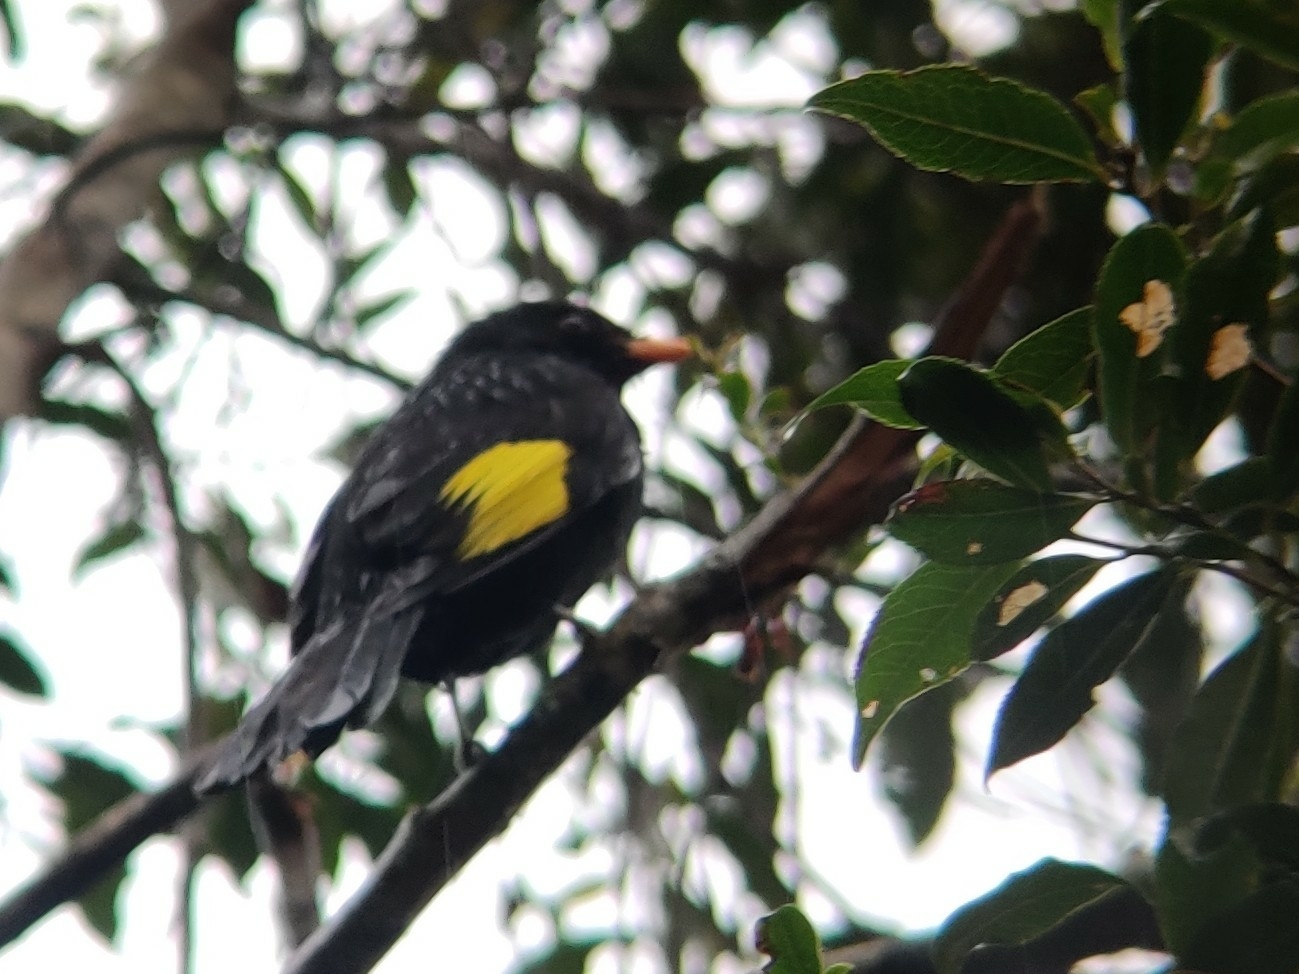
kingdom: Animalia
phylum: Chordata
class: Aves
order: Passeriformes
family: Cotingidae
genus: Lipaugus
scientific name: Lipaugus ater
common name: Black-and-gold cotinga
